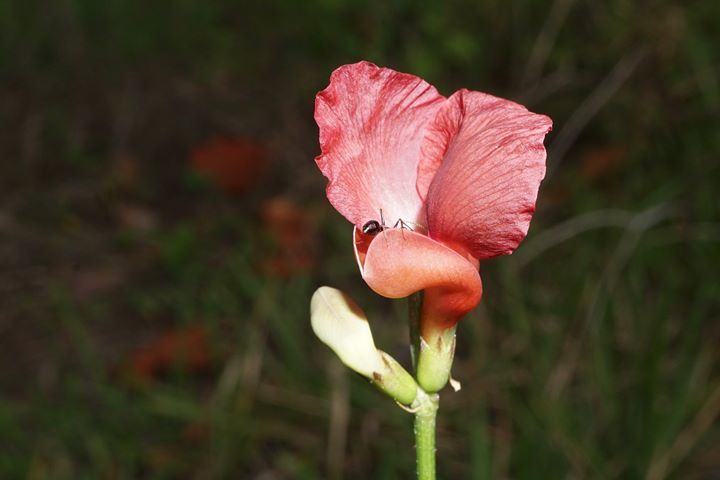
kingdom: Plantae
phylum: Tracheophyta
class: Magnoliopsida
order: Fabales
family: Fabaceae
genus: Macroptilium
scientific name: Macroptilium lathyroides
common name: Wild bushbean
